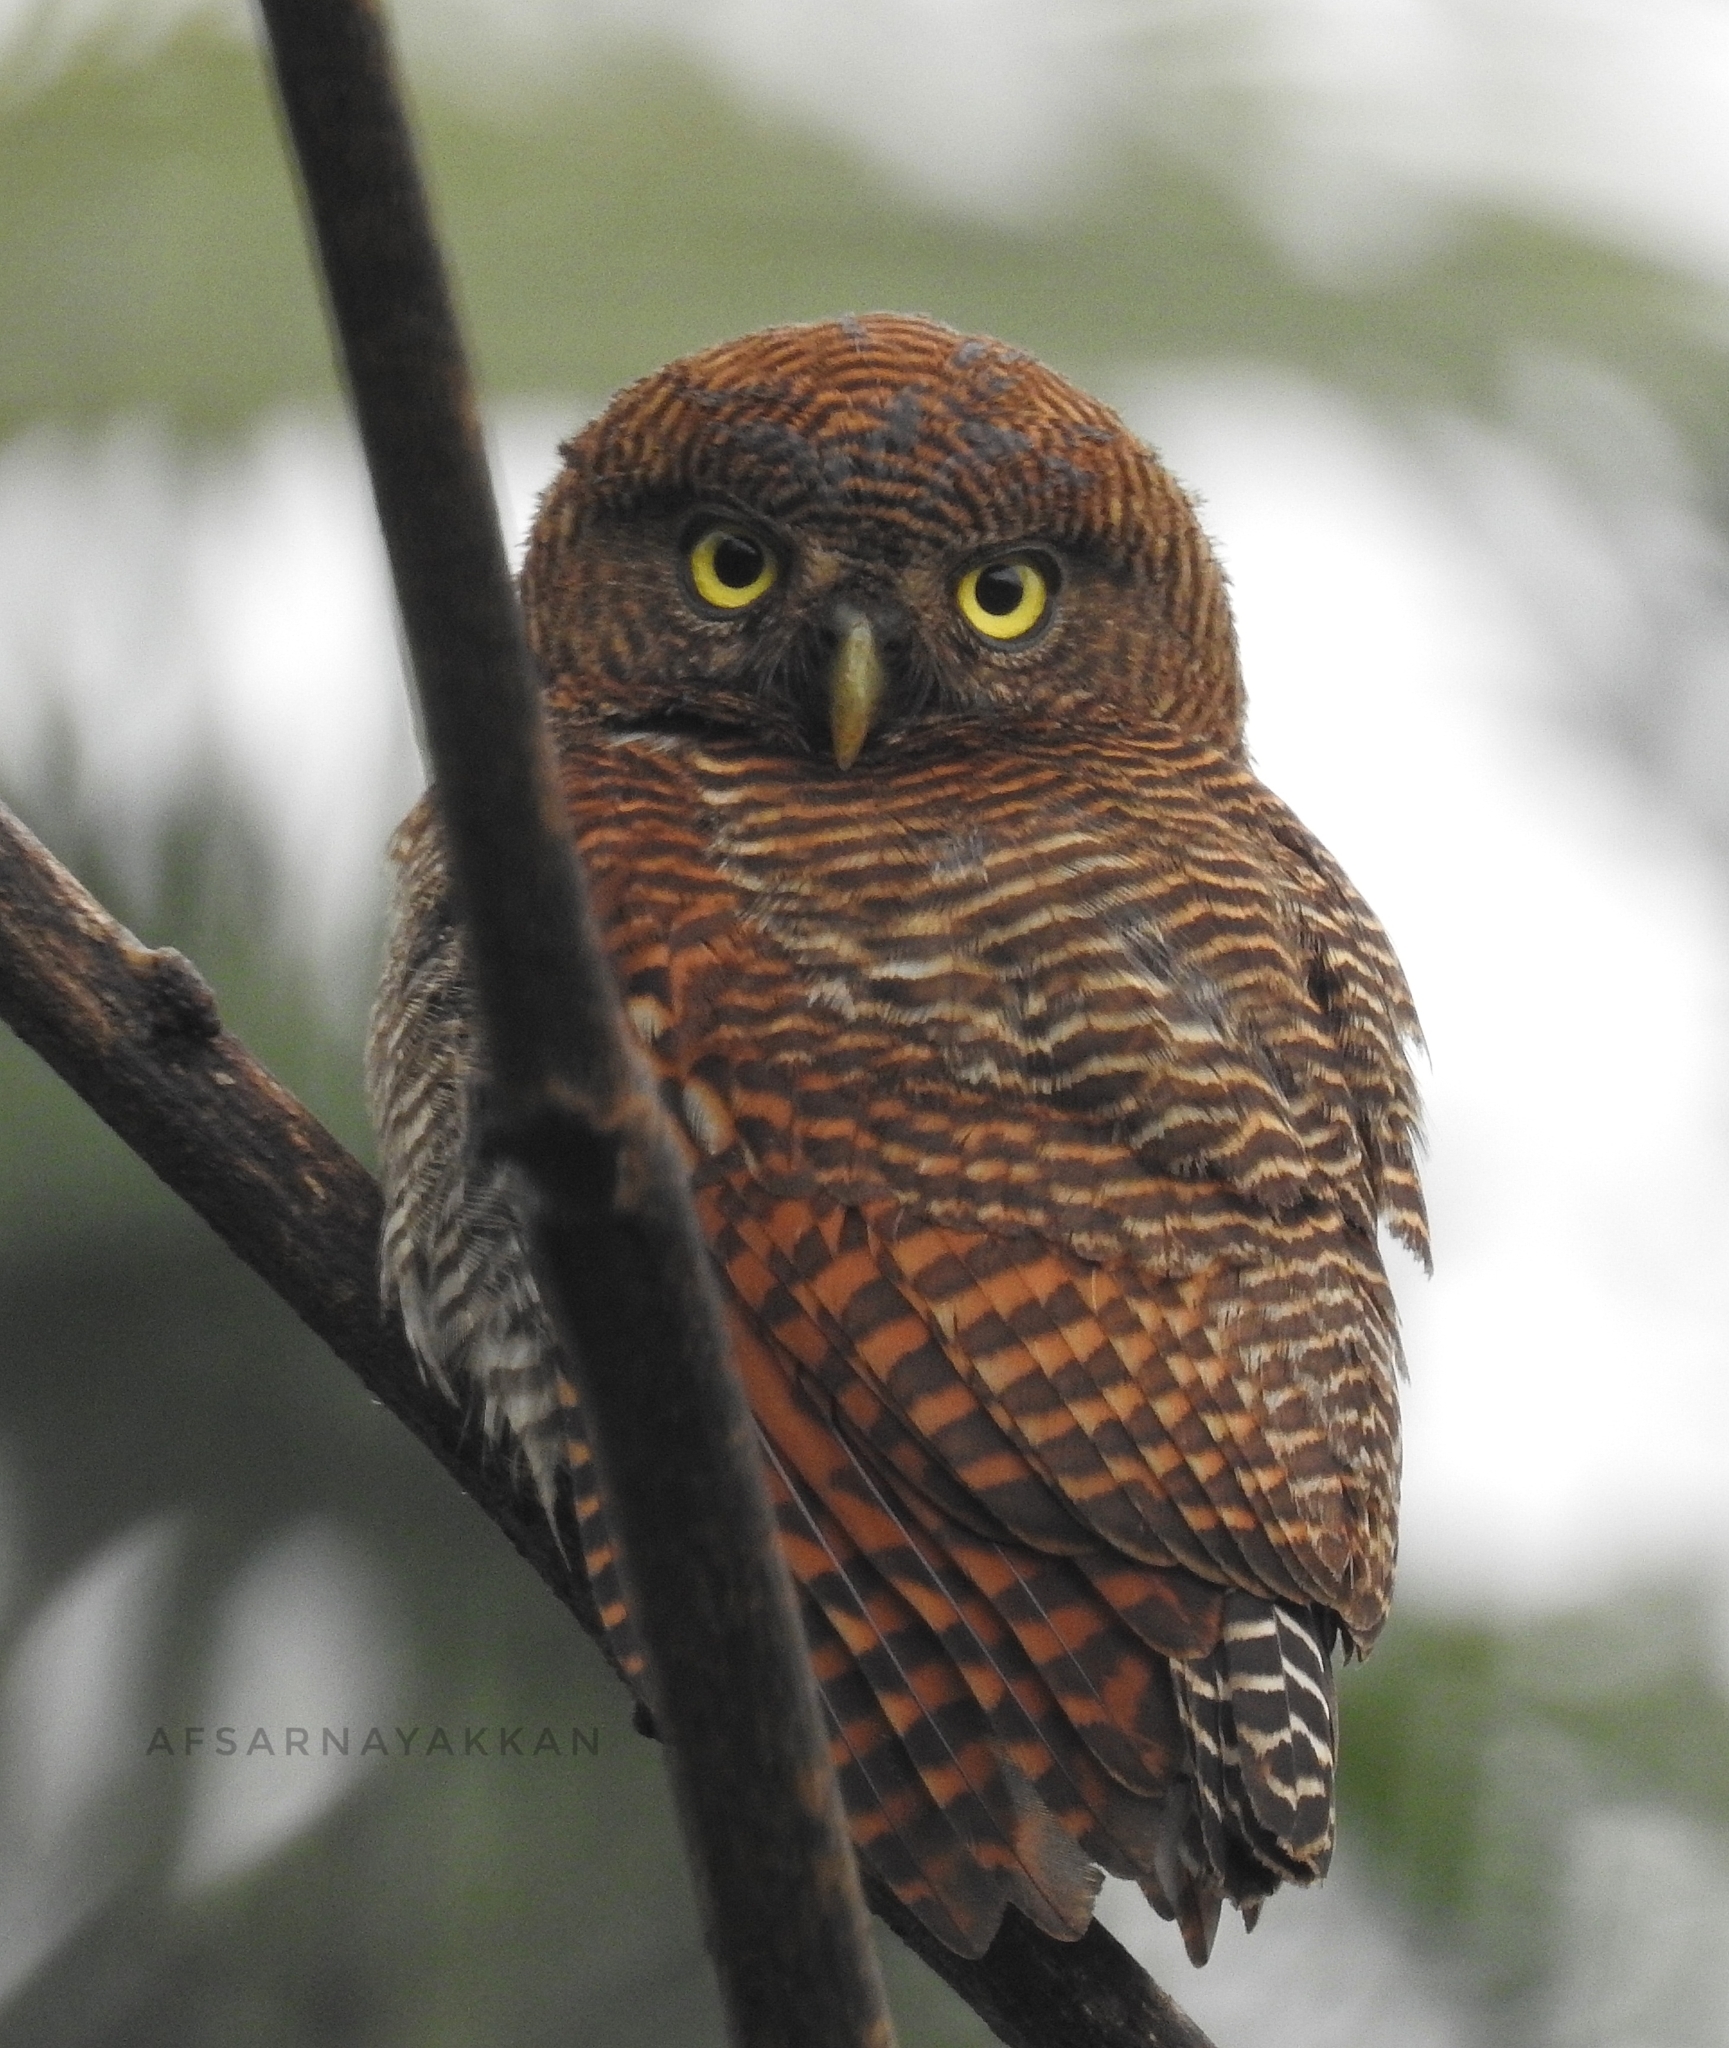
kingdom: Animalia
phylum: Chordata
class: Aves
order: Strigiformes
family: Strigidae
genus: Glaucidium
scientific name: Glaucidium radiatum
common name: Jungle owlet
